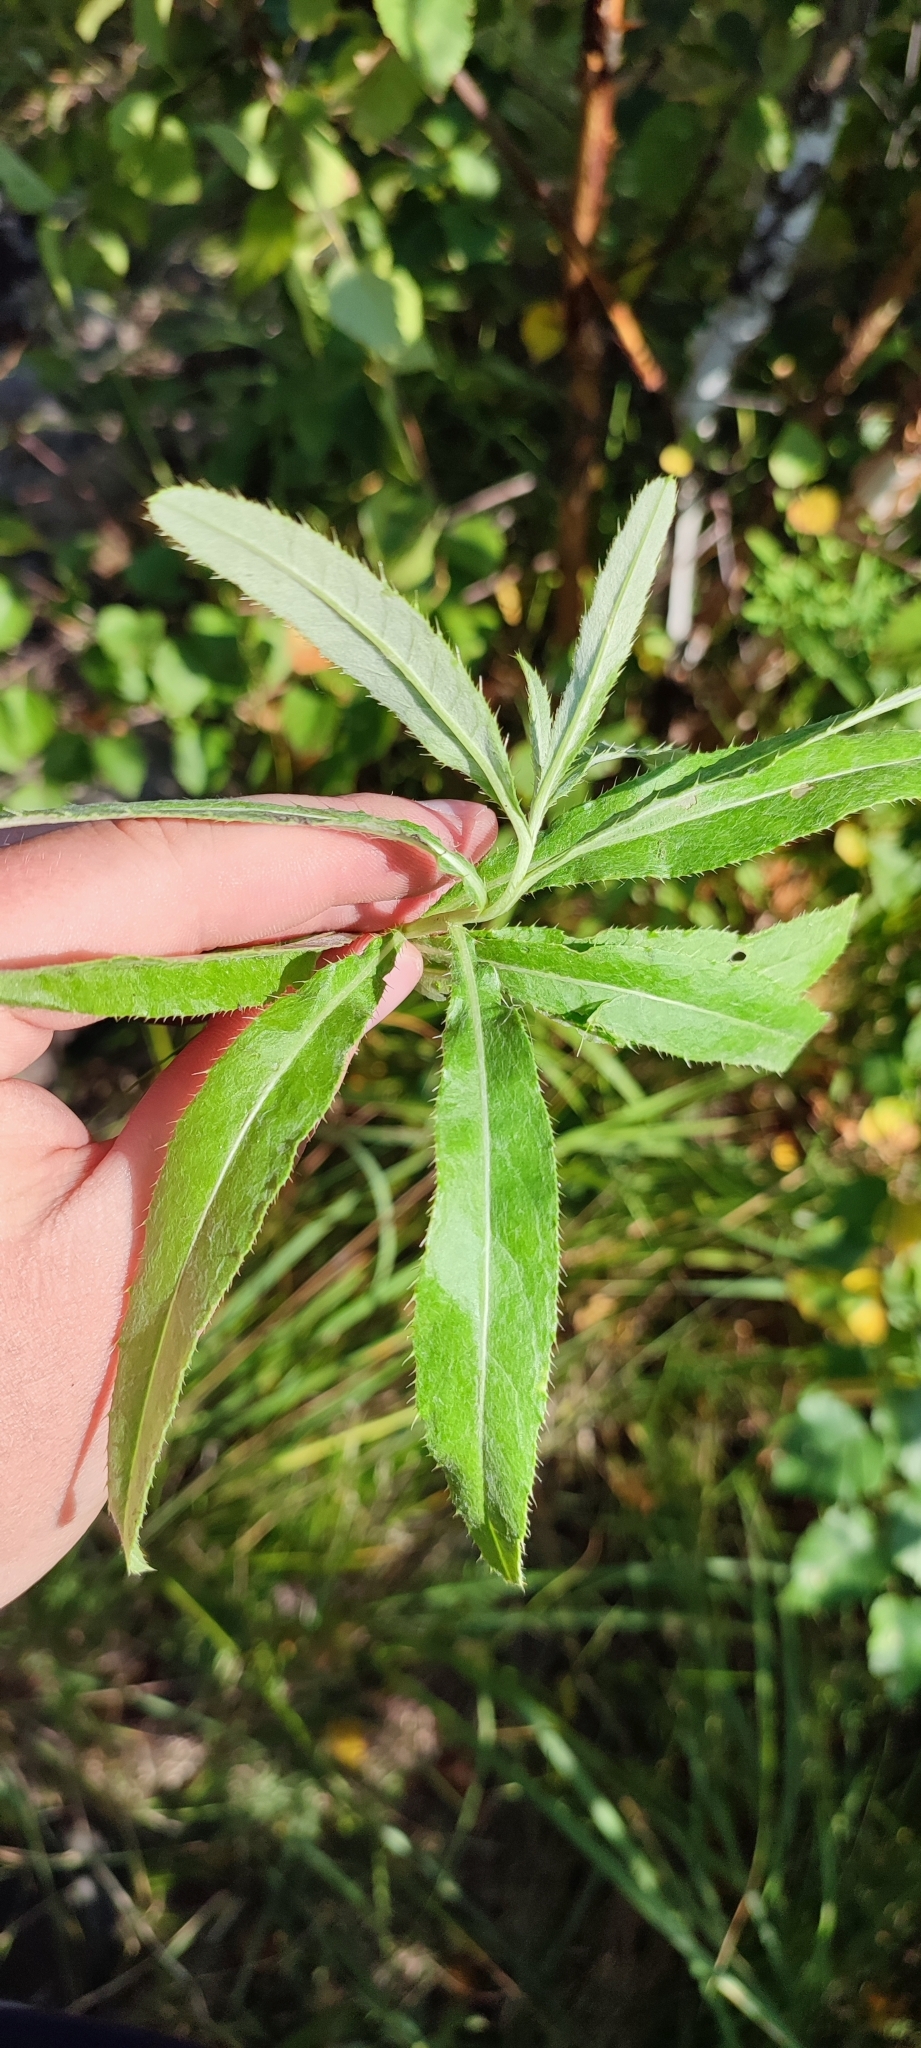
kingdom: Plantae
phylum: Tracheophyta
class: Magnoliopsida
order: Asterales
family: Asteraceae
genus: Cirsium
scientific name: Cirsium arvense
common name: Creeping thistle
